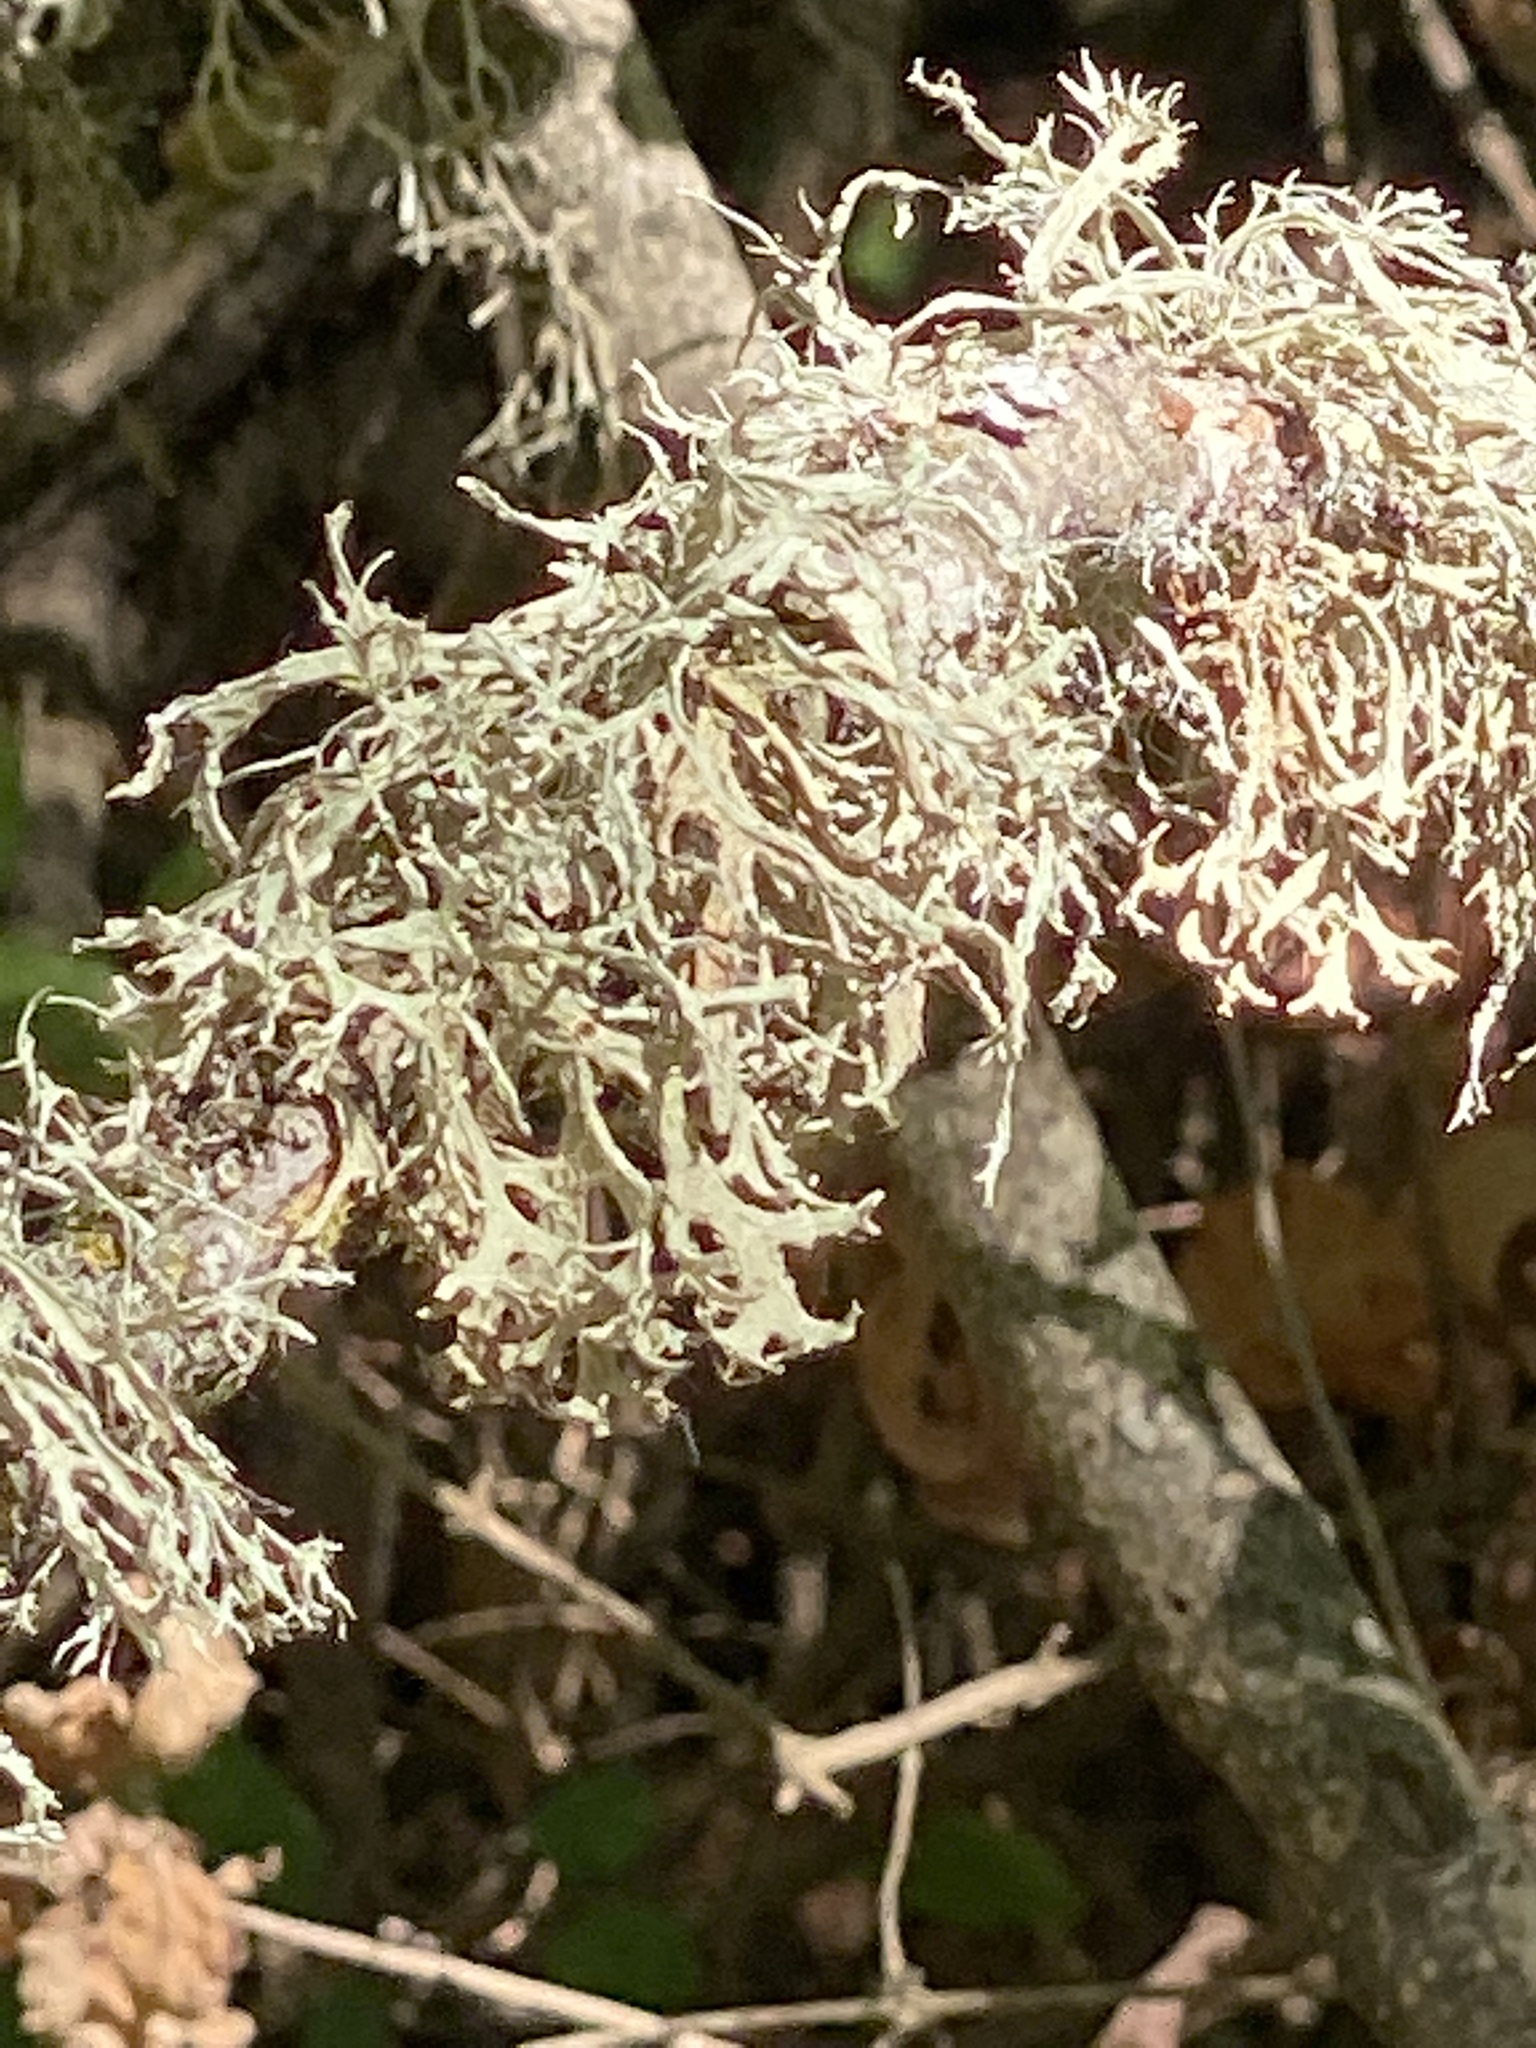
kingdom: Fungi
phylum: Ascomycota
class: Lecanoromycetes
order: Lecanorales
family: Parmeliaceae
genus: Evernia
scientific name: Evernia prunastri
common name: Oak moss
